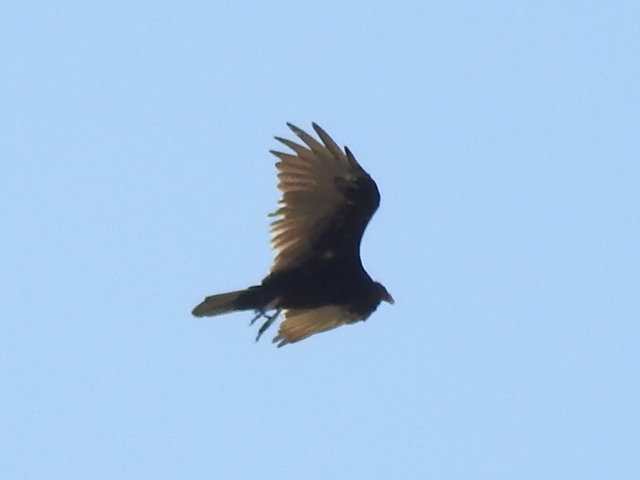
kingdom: Animalia
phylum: Chordata
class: Aves
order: Accipitriformes
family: Cathartidae
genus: Cathartes
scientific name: Cathartes aura
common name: Turkey vulture
